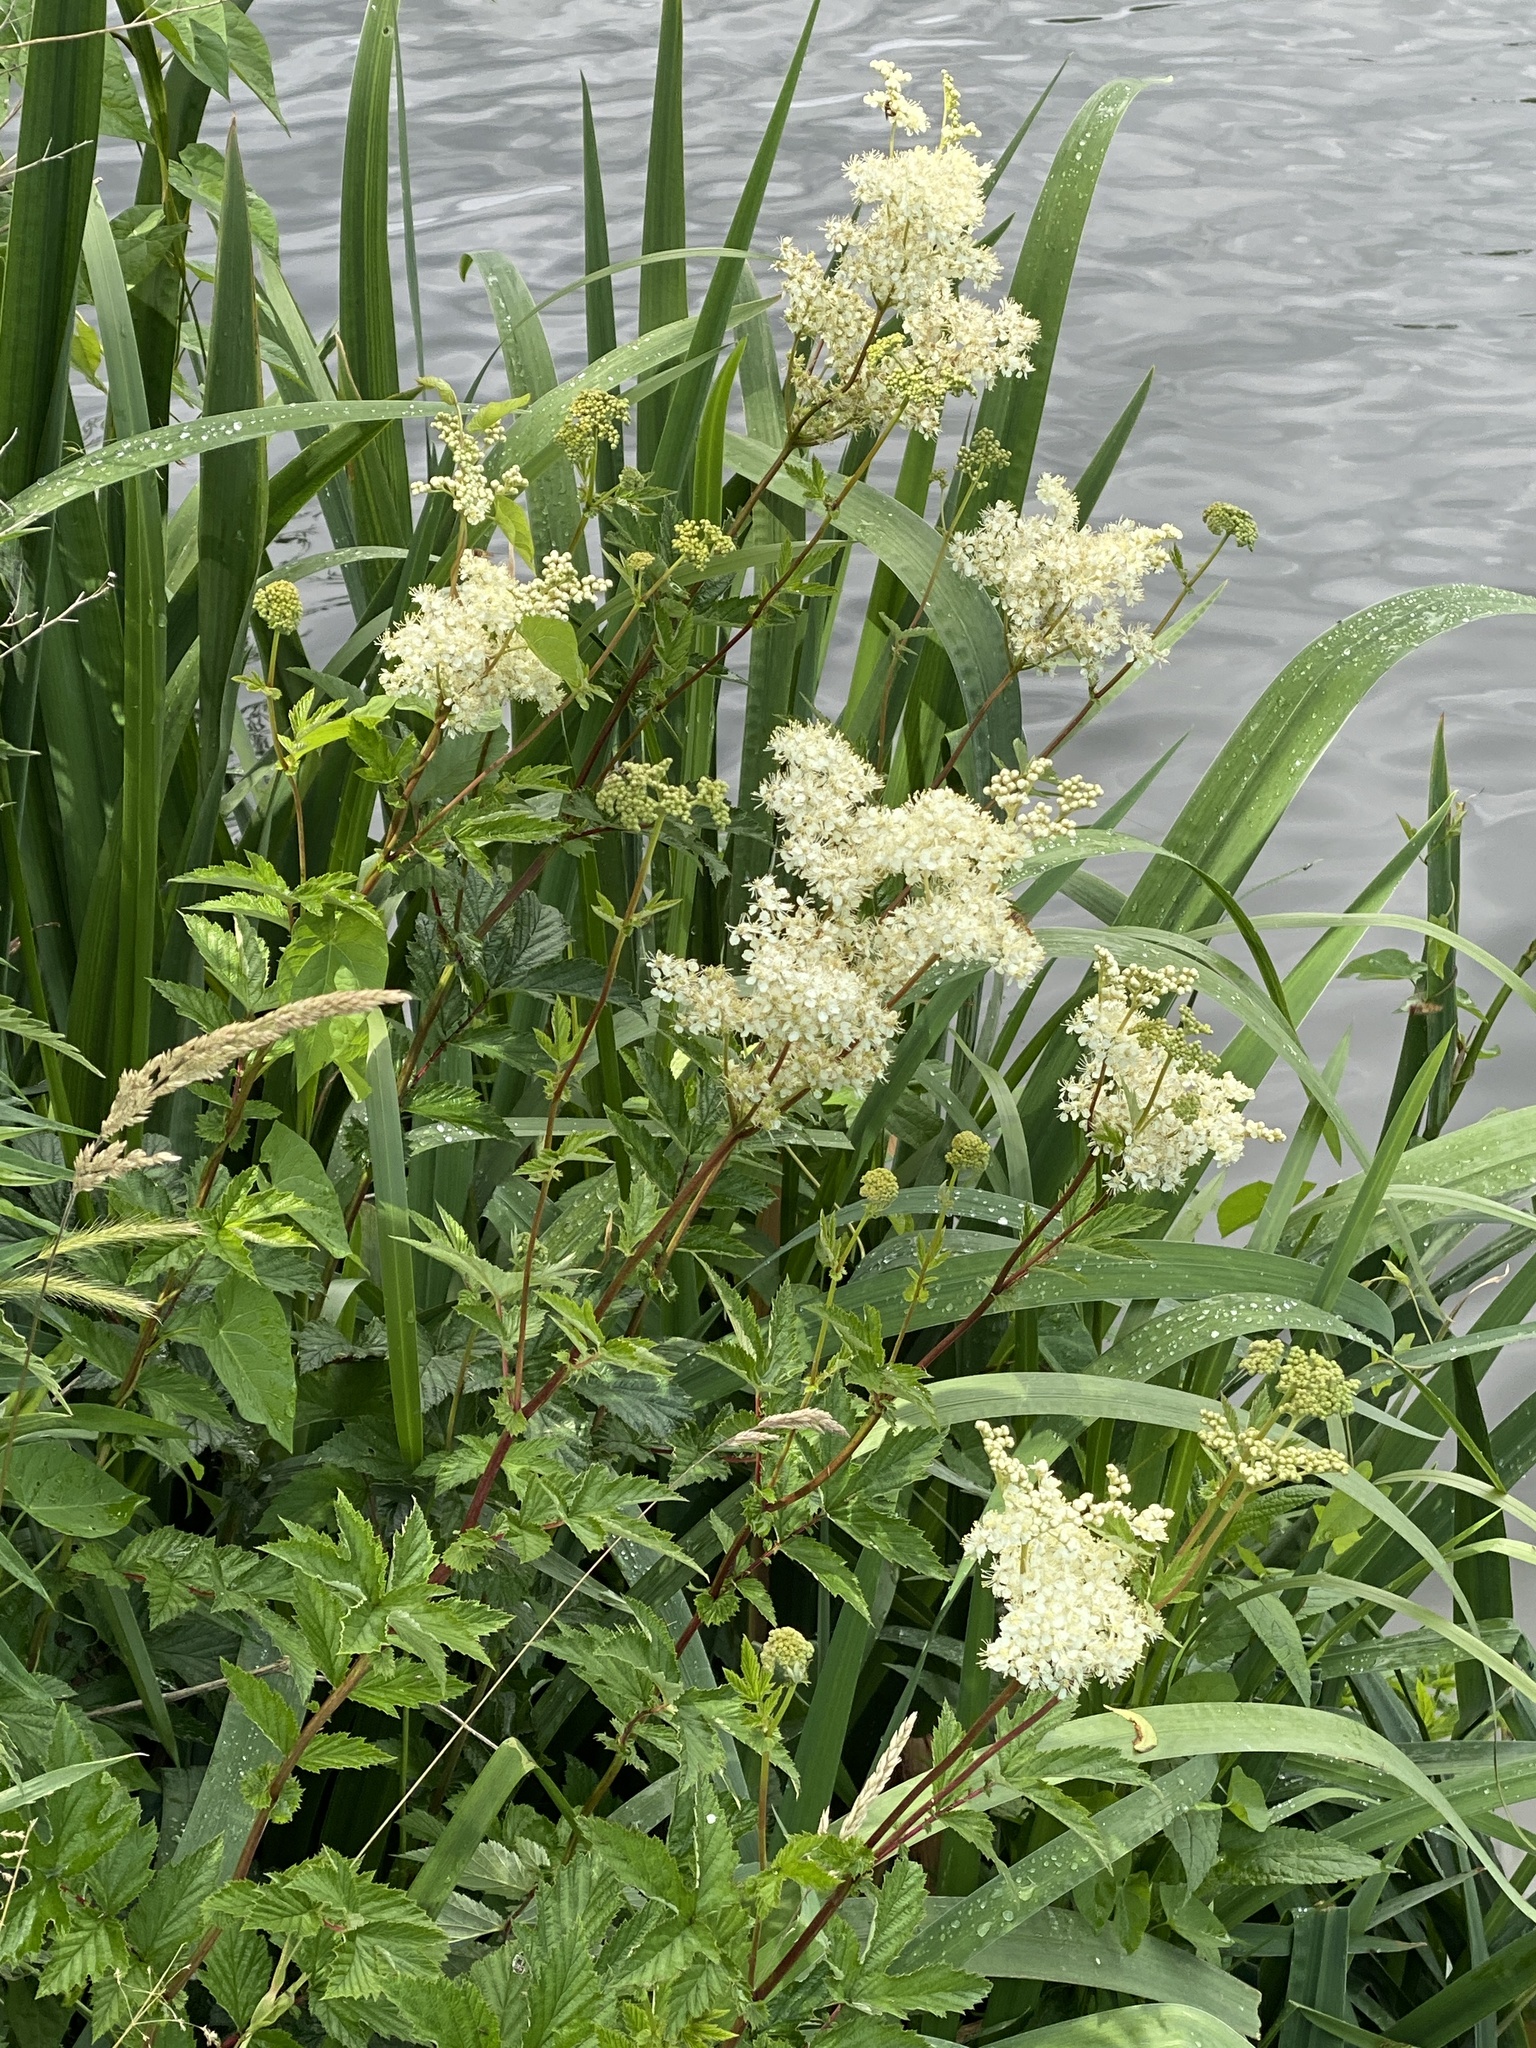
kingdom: Plantae
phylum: Tracheophyta
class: Magnoliopsida
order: Rosales
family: Rosaceae
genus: Filipendula
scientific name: Filipendula ulmaria
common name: Meadowsweet
